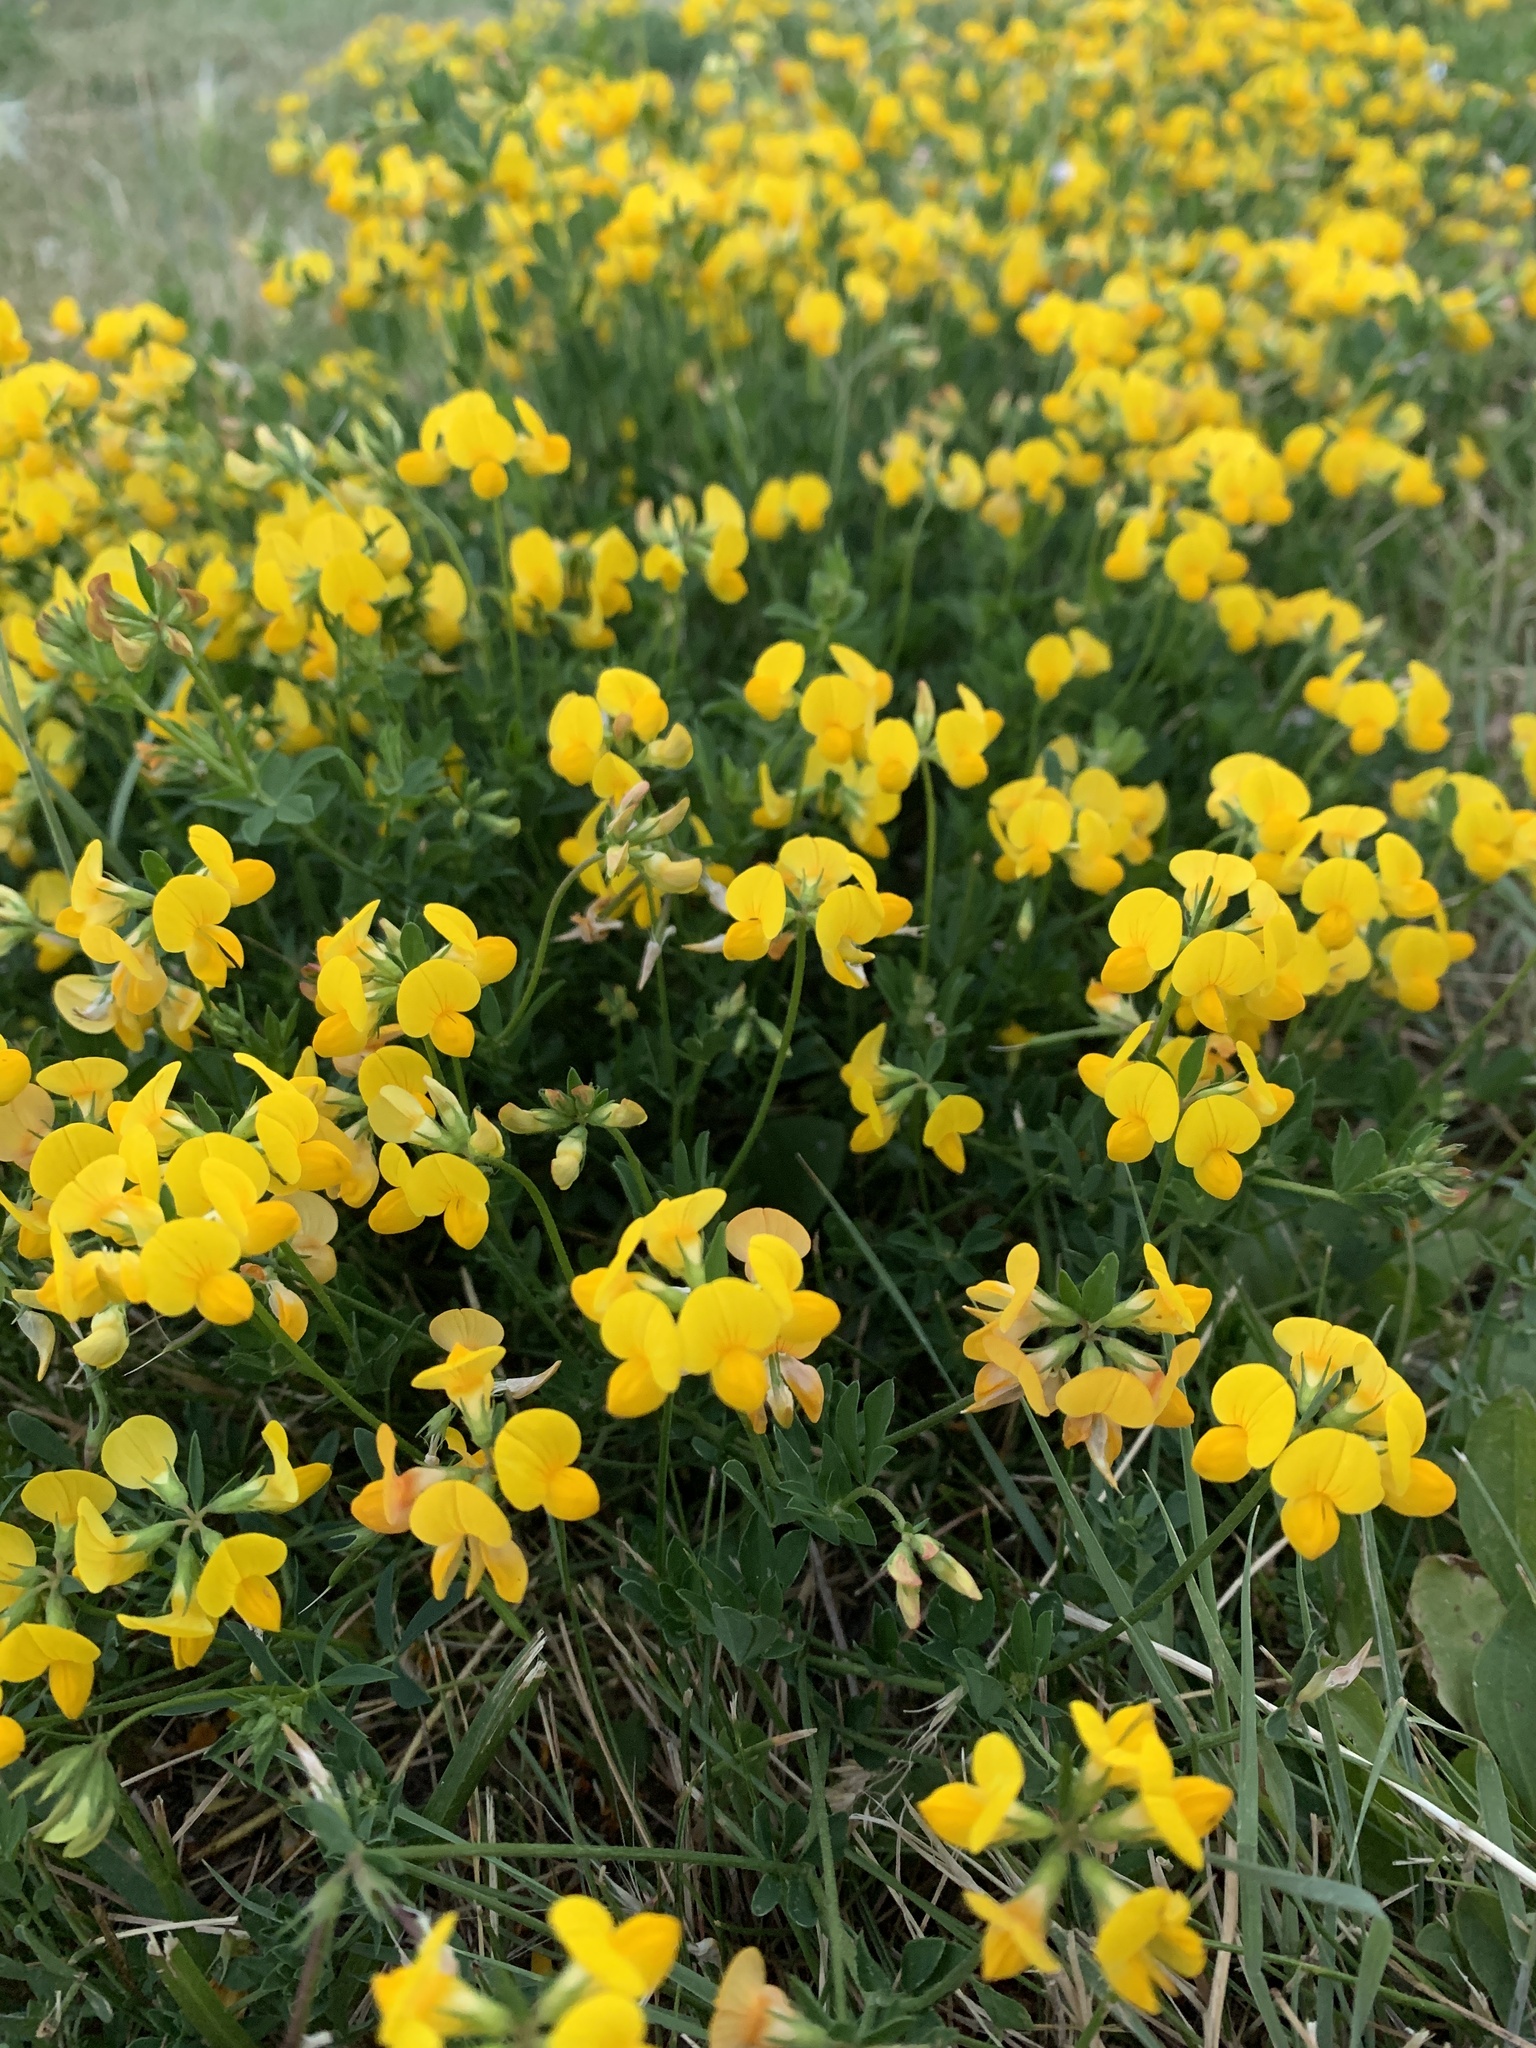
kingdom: Plantae
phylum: Tracheophyta
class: Magnoliopsida
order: Fabales
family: Fabaceae
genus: Lotus
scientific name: Lotus corniculatus
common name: Common bird's-foot-trefoil
